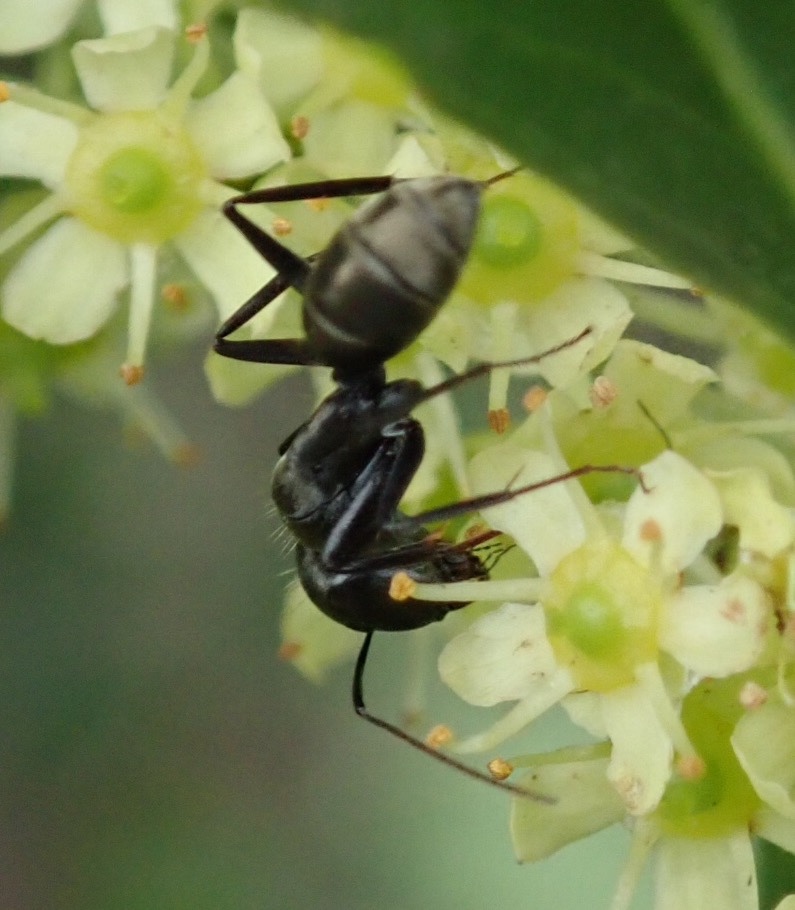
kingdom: Animalia
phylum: Arthropoda
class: Insecta
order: Hymenoptera
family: Formicidae
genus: Camponotus
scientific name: Camponotus cinctellus
